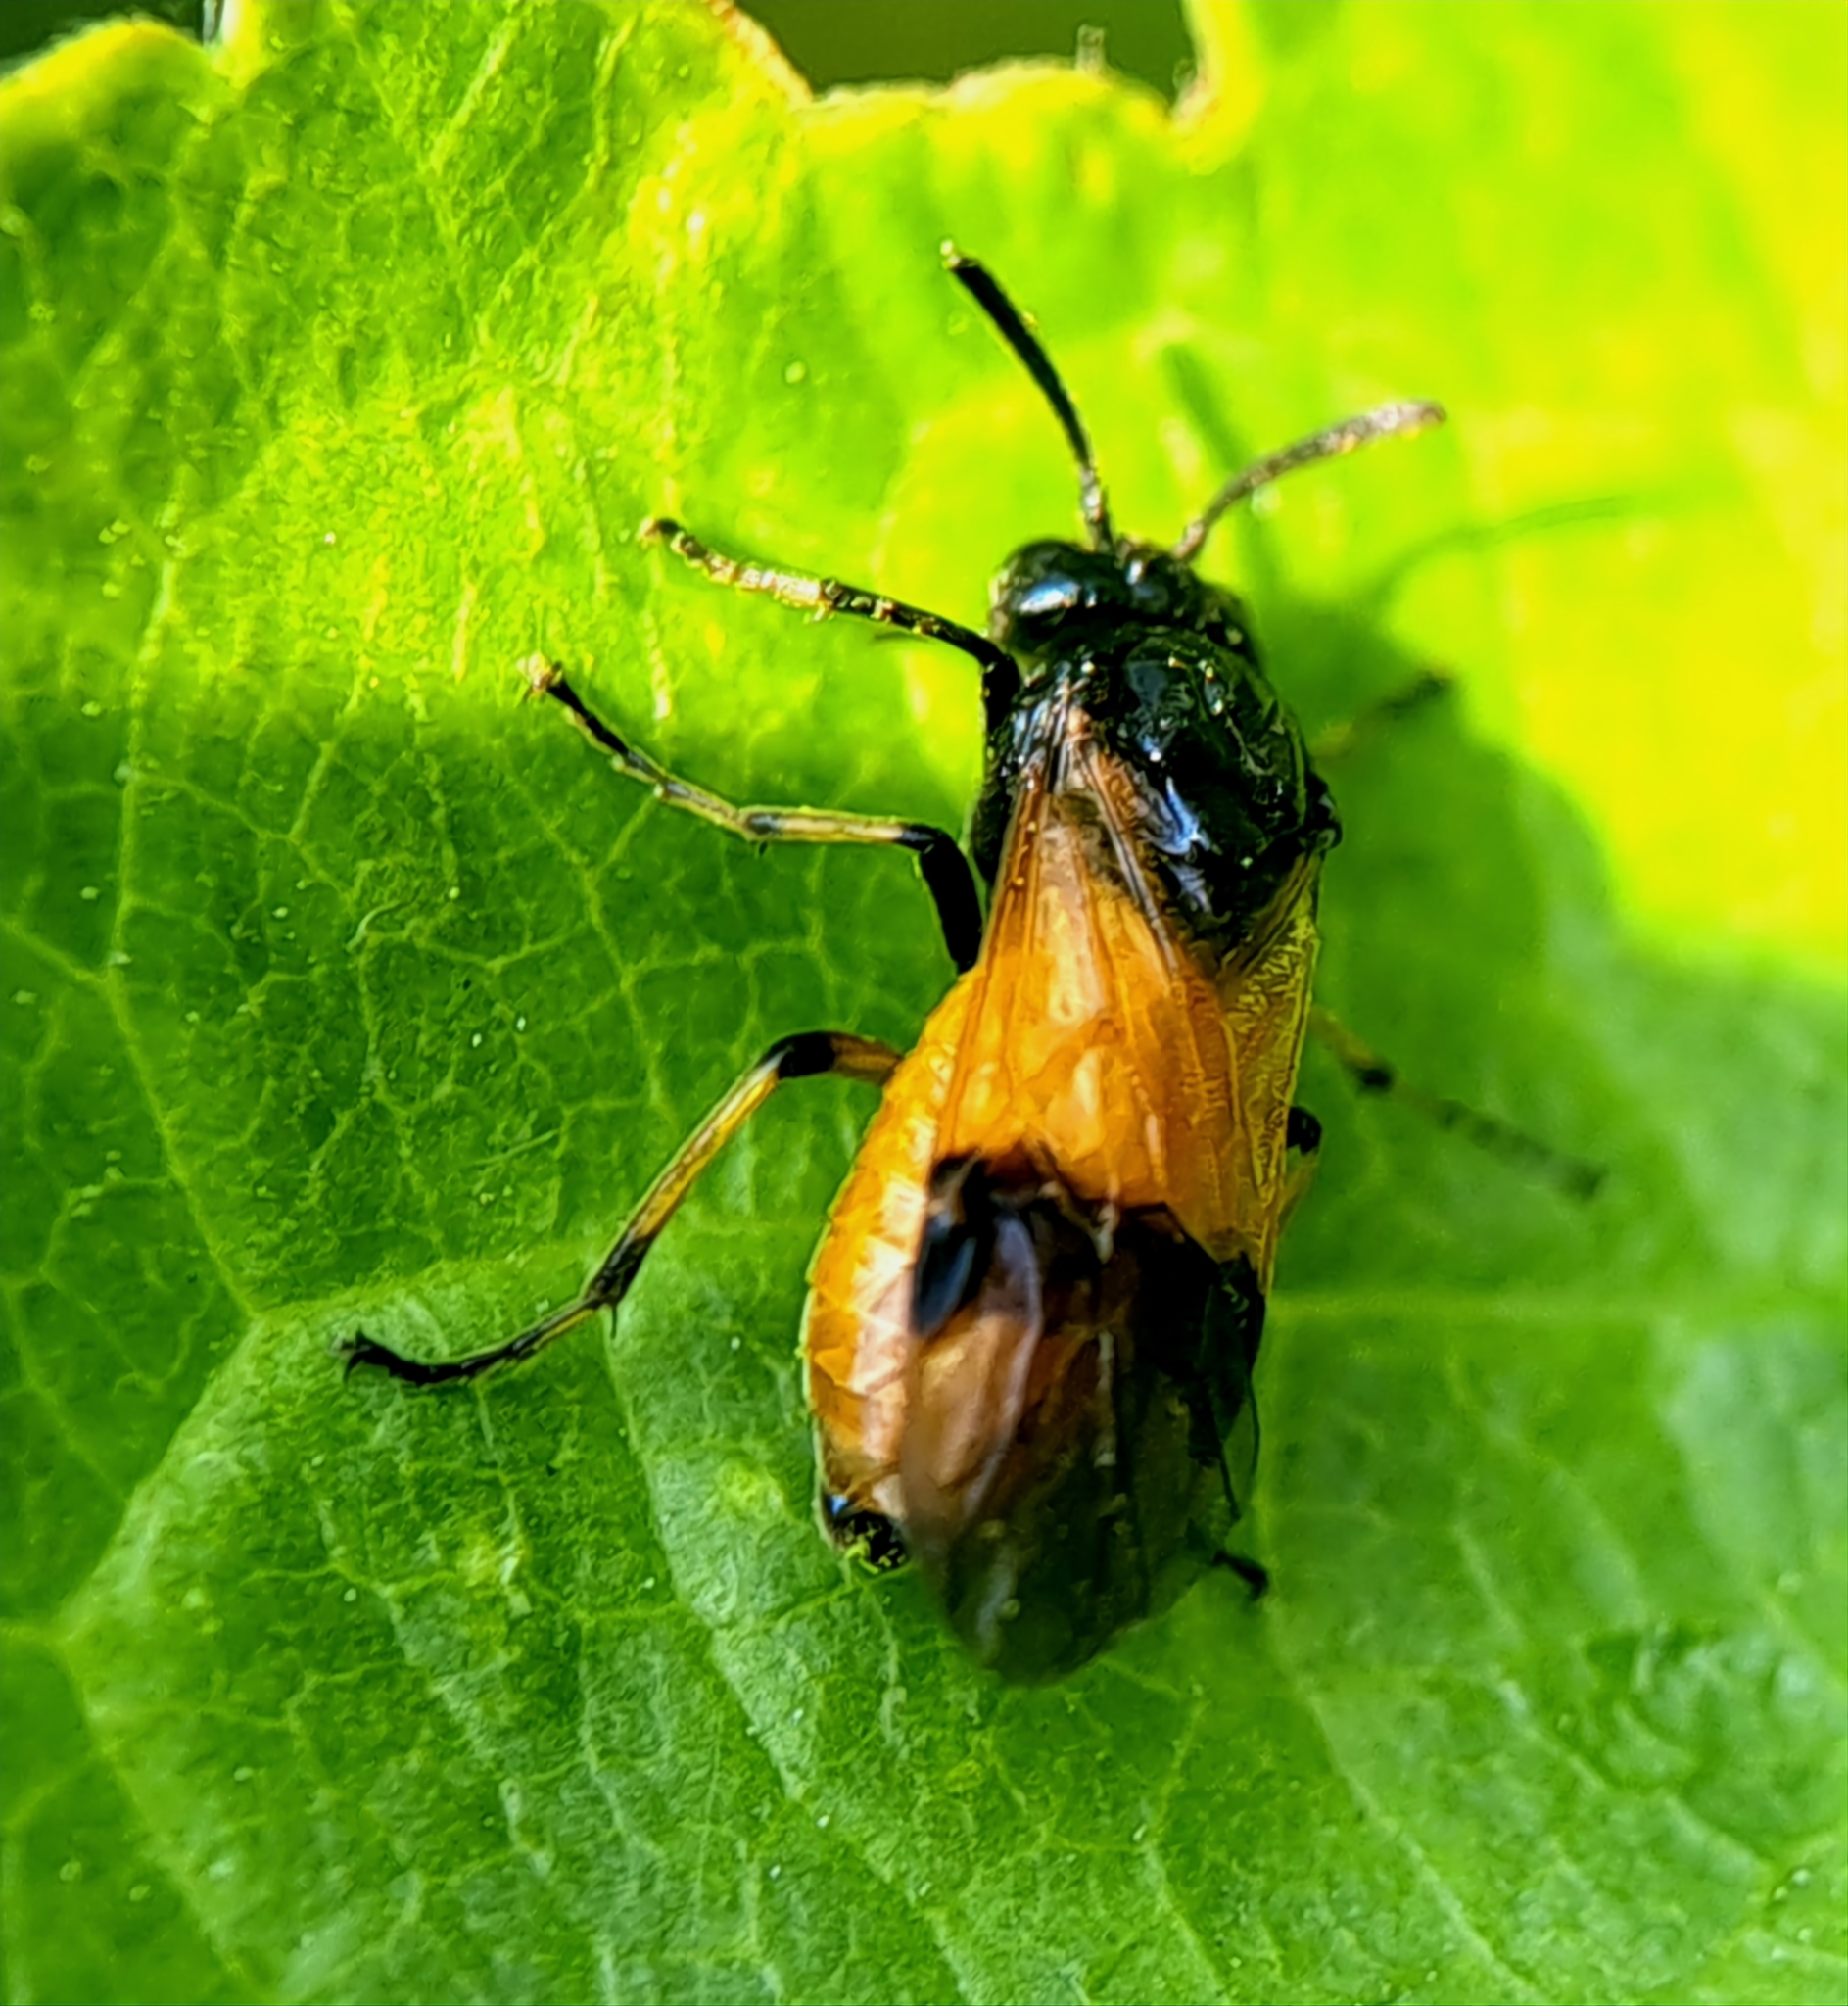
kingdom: Animalia
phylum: Arthropoda
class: Insecta
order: Hymenoptera
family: Argidae
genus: Arge
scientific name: Arge cyanocrocea
